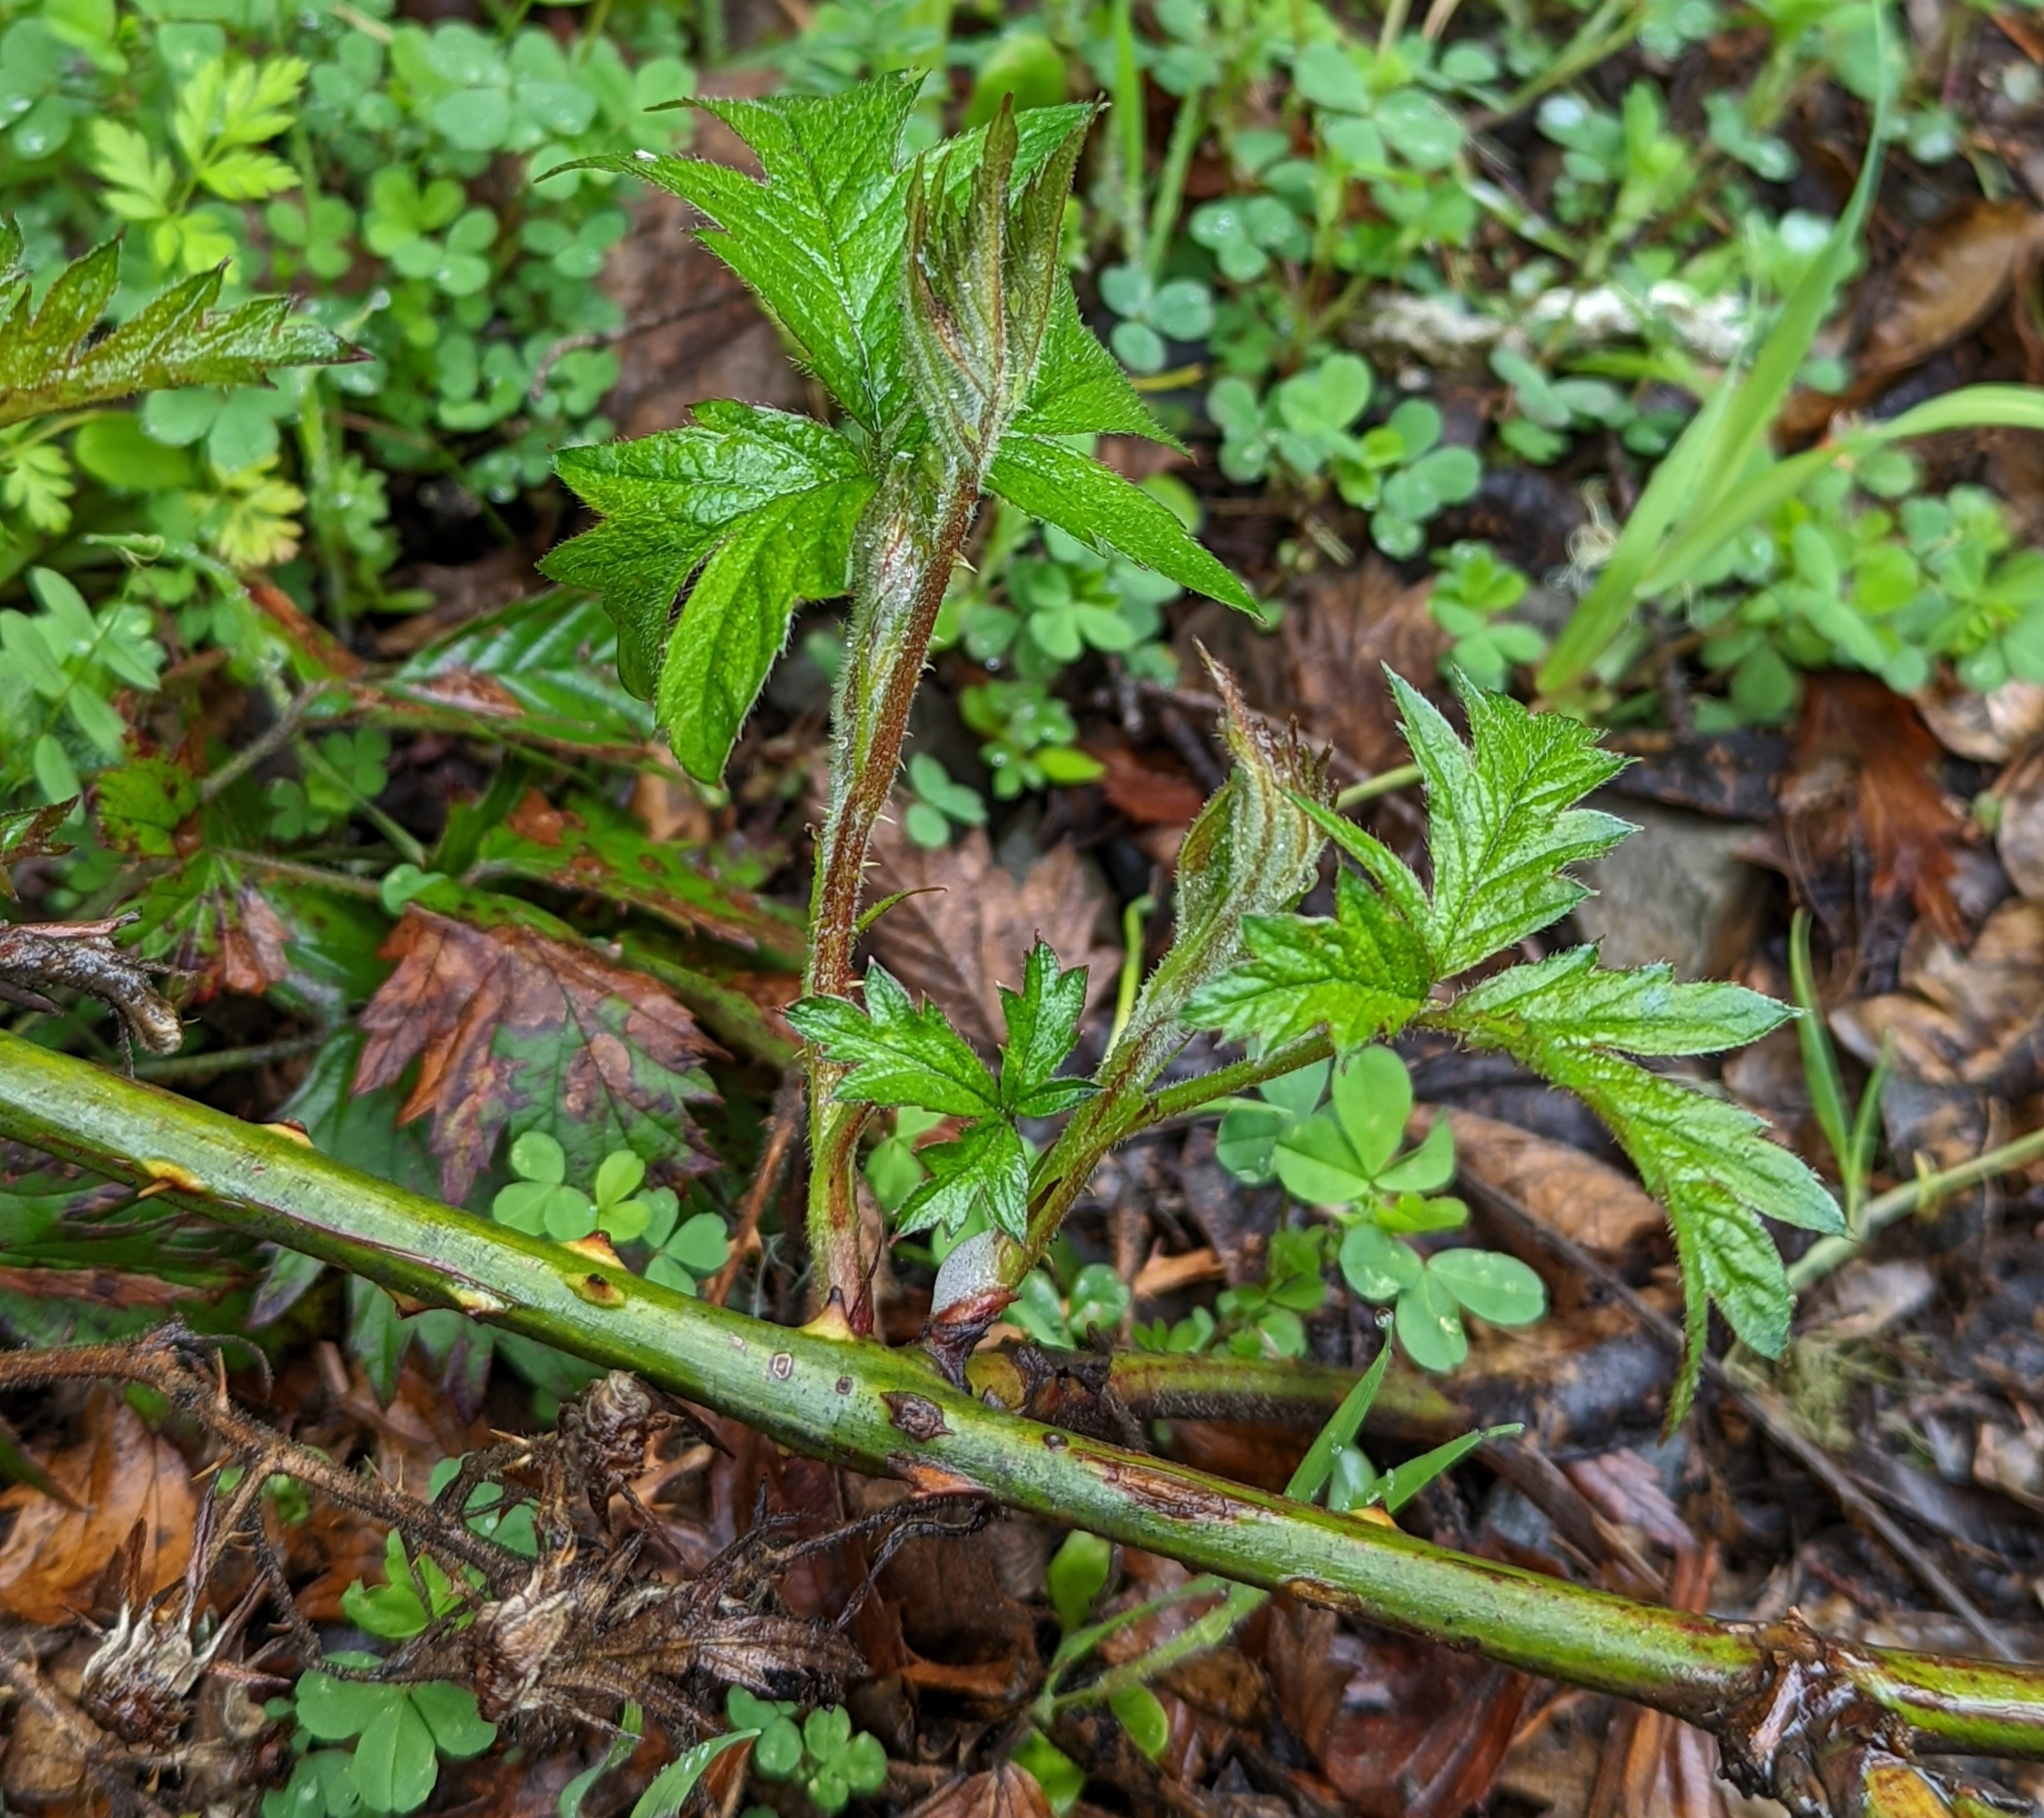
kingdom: Plantae
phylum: Tracheophyta
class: Magnoliopsida
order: Rosales
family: Rosaceae
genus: Rubus
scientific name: Rubus laciniatus
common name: Evergreen blackberry
